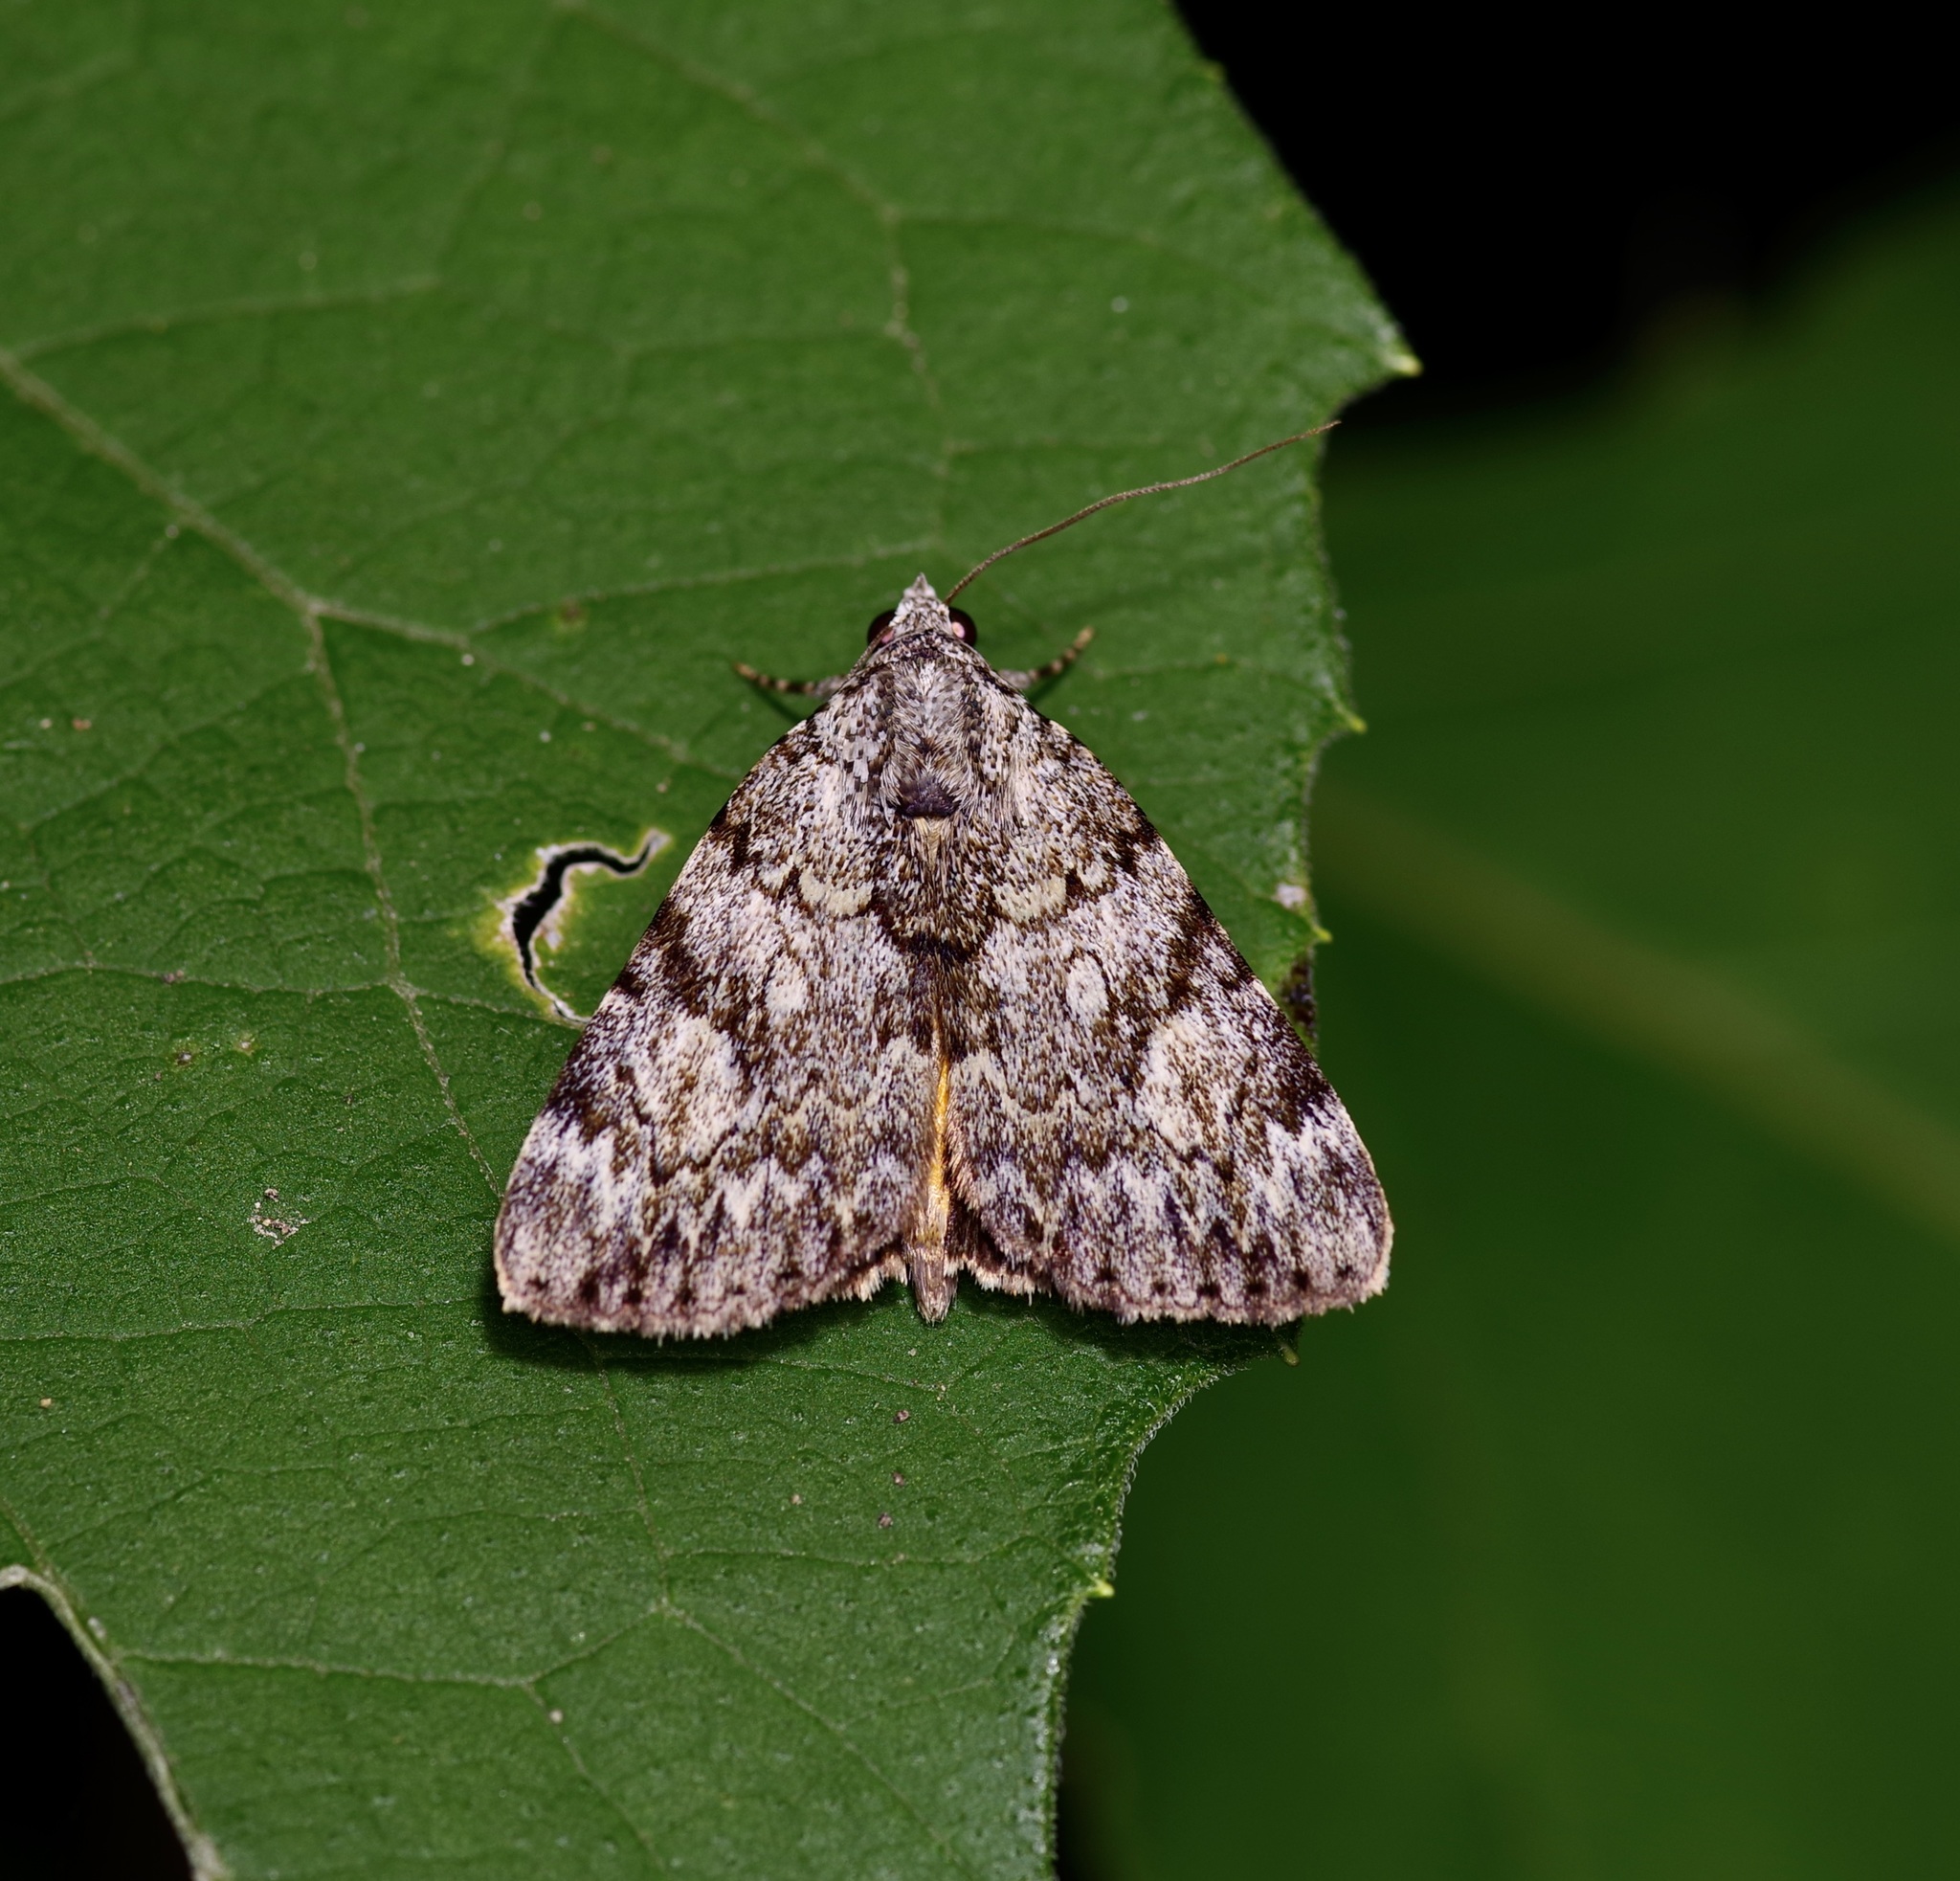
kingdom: Animalia
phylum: Arthropoda
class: Insecta
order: Lepidoptera
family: Erebidae
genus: Catocala
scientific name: Catocala lineella
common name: Little lined underwing
